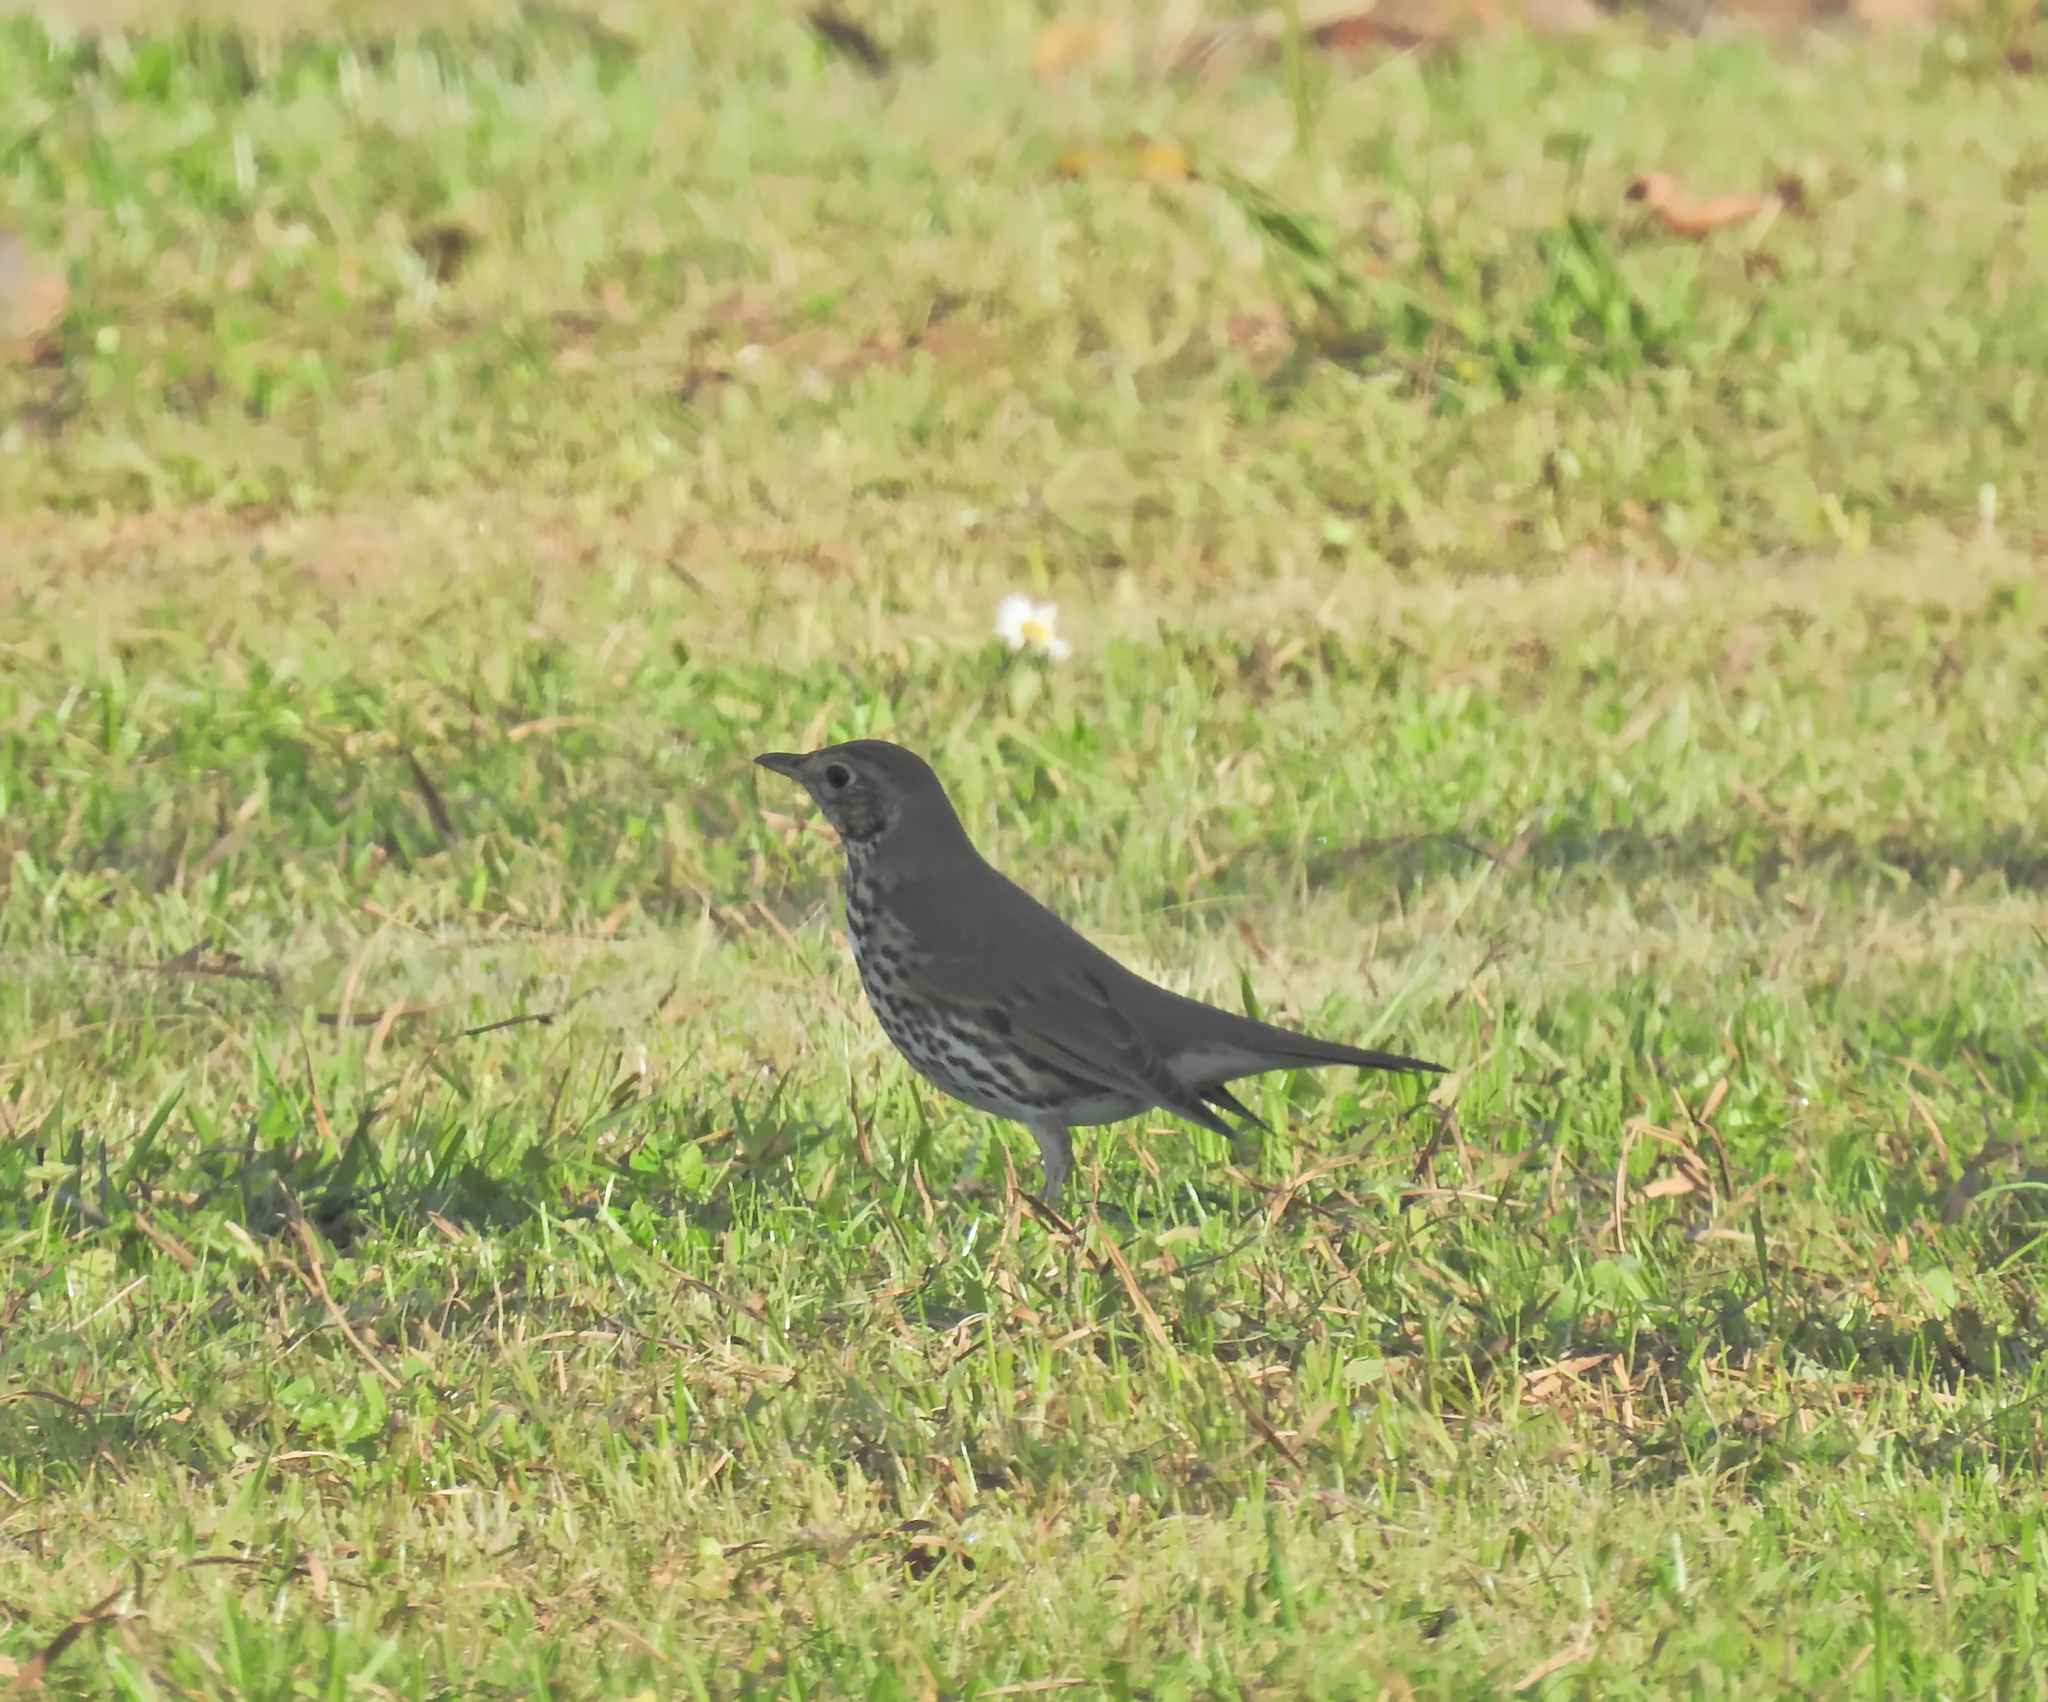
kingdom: Animalia
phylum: Chordata
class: Aves
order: Passeriformes
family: Turdidae
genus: Turdus
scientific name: Turdus philomelos
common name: Song thrush
